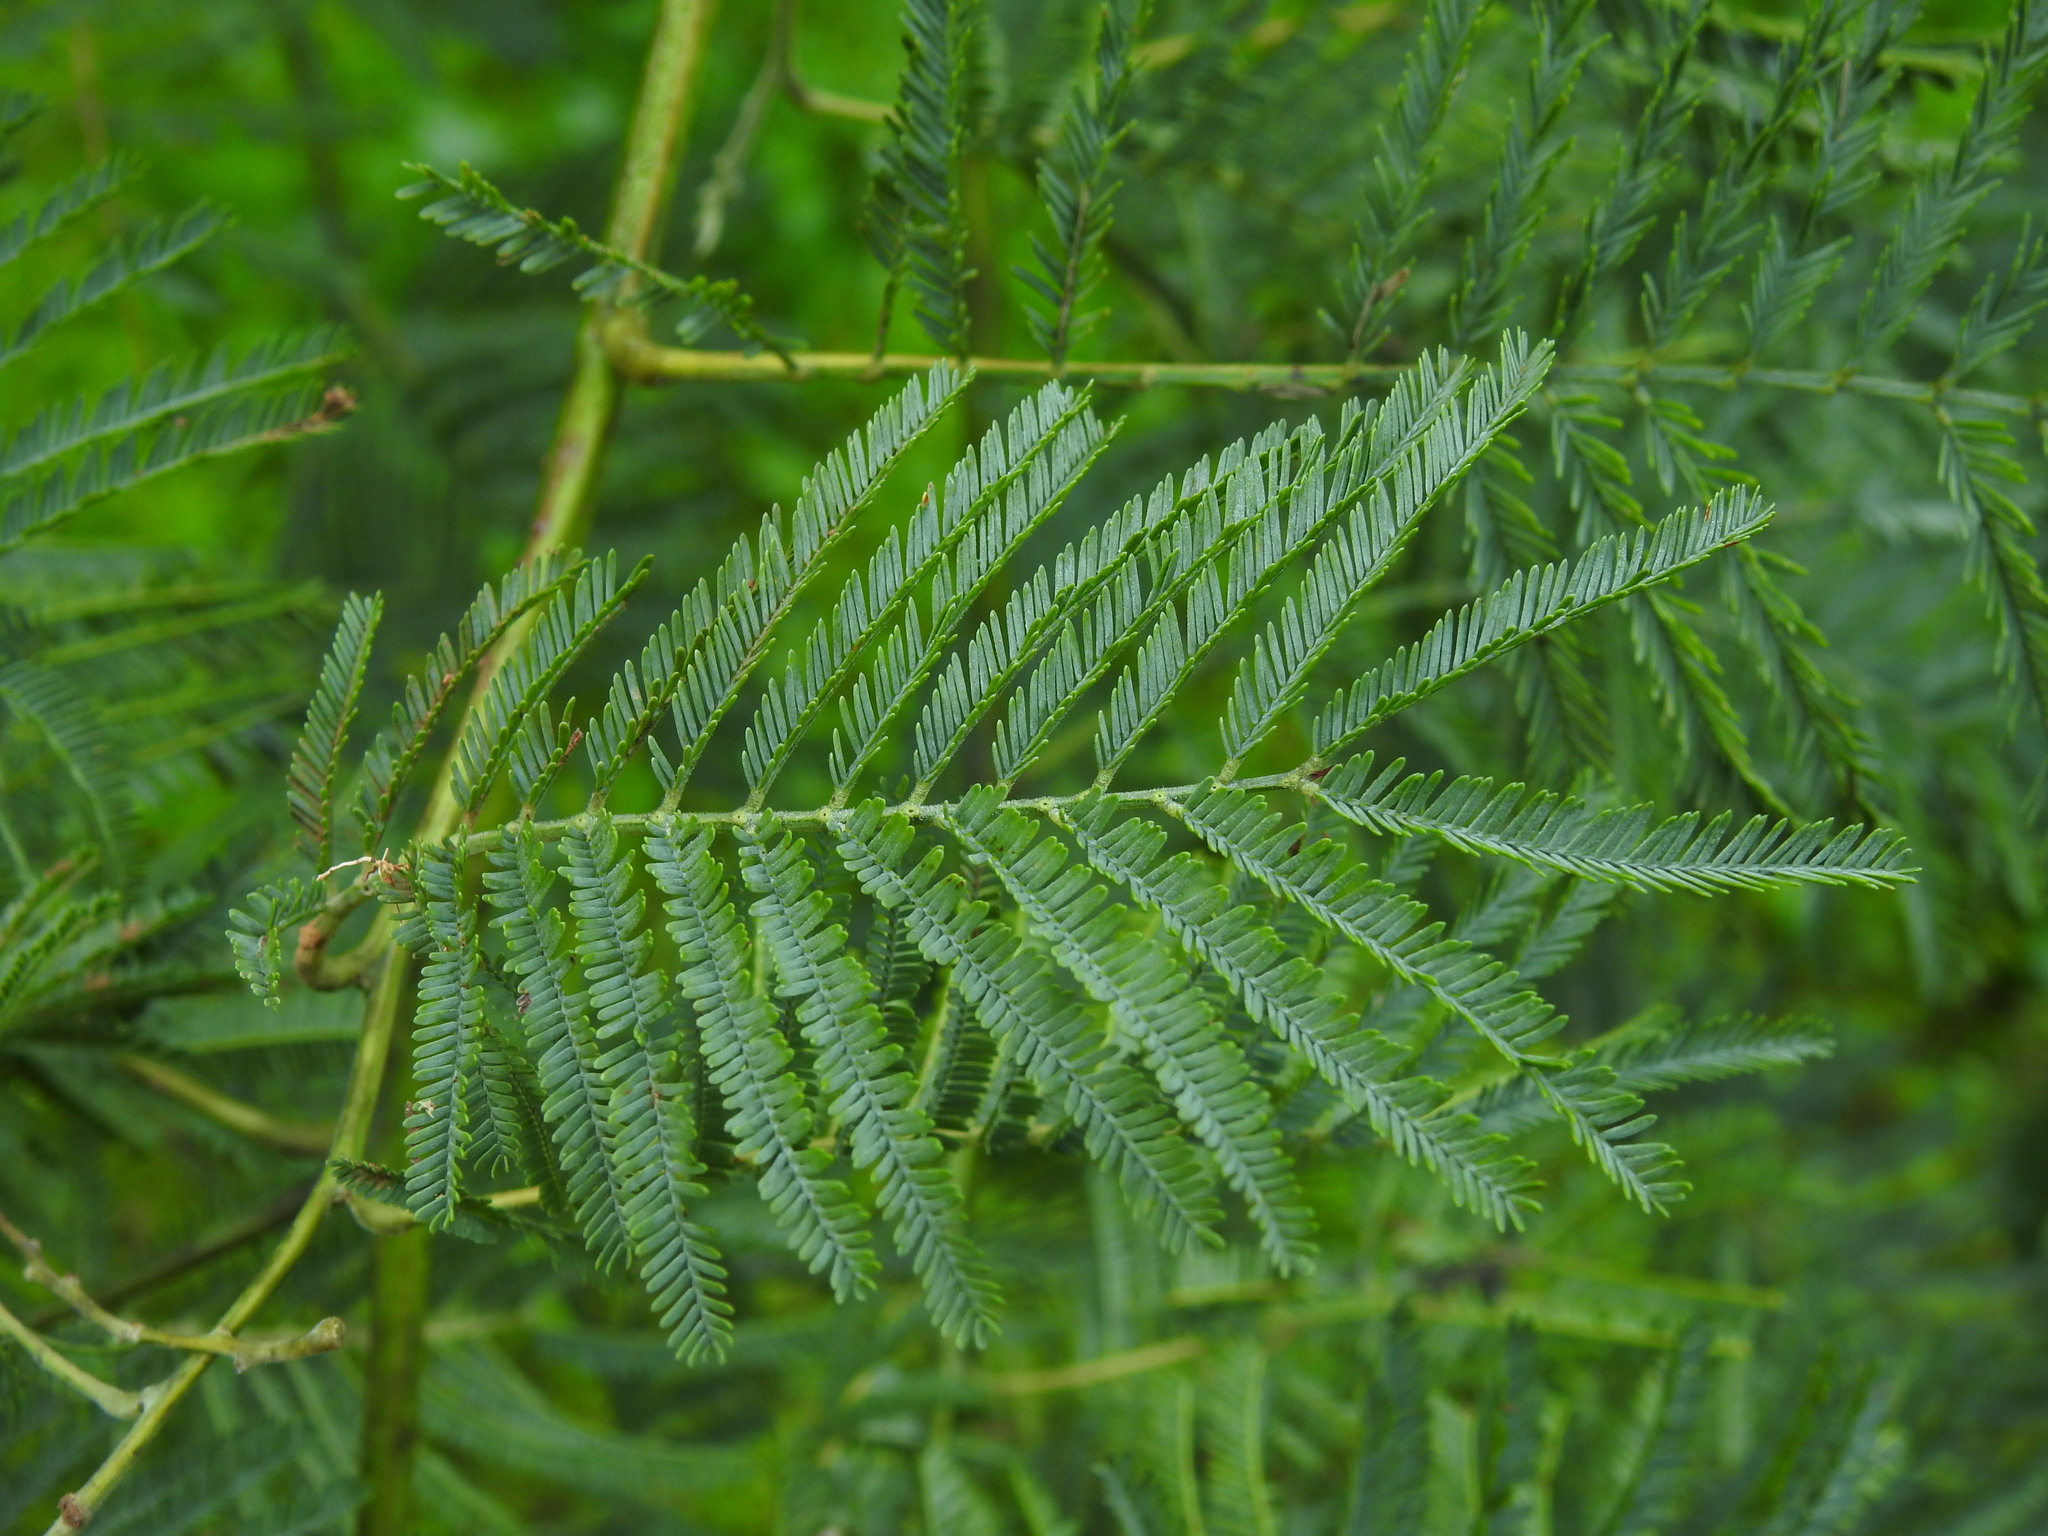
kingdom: Plantae
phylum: Tracheophyta
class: Magnoliopsida
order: Fabales
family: Fabaceae
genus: Acacia
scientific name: Acacia dealbata
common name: Silver wattle
